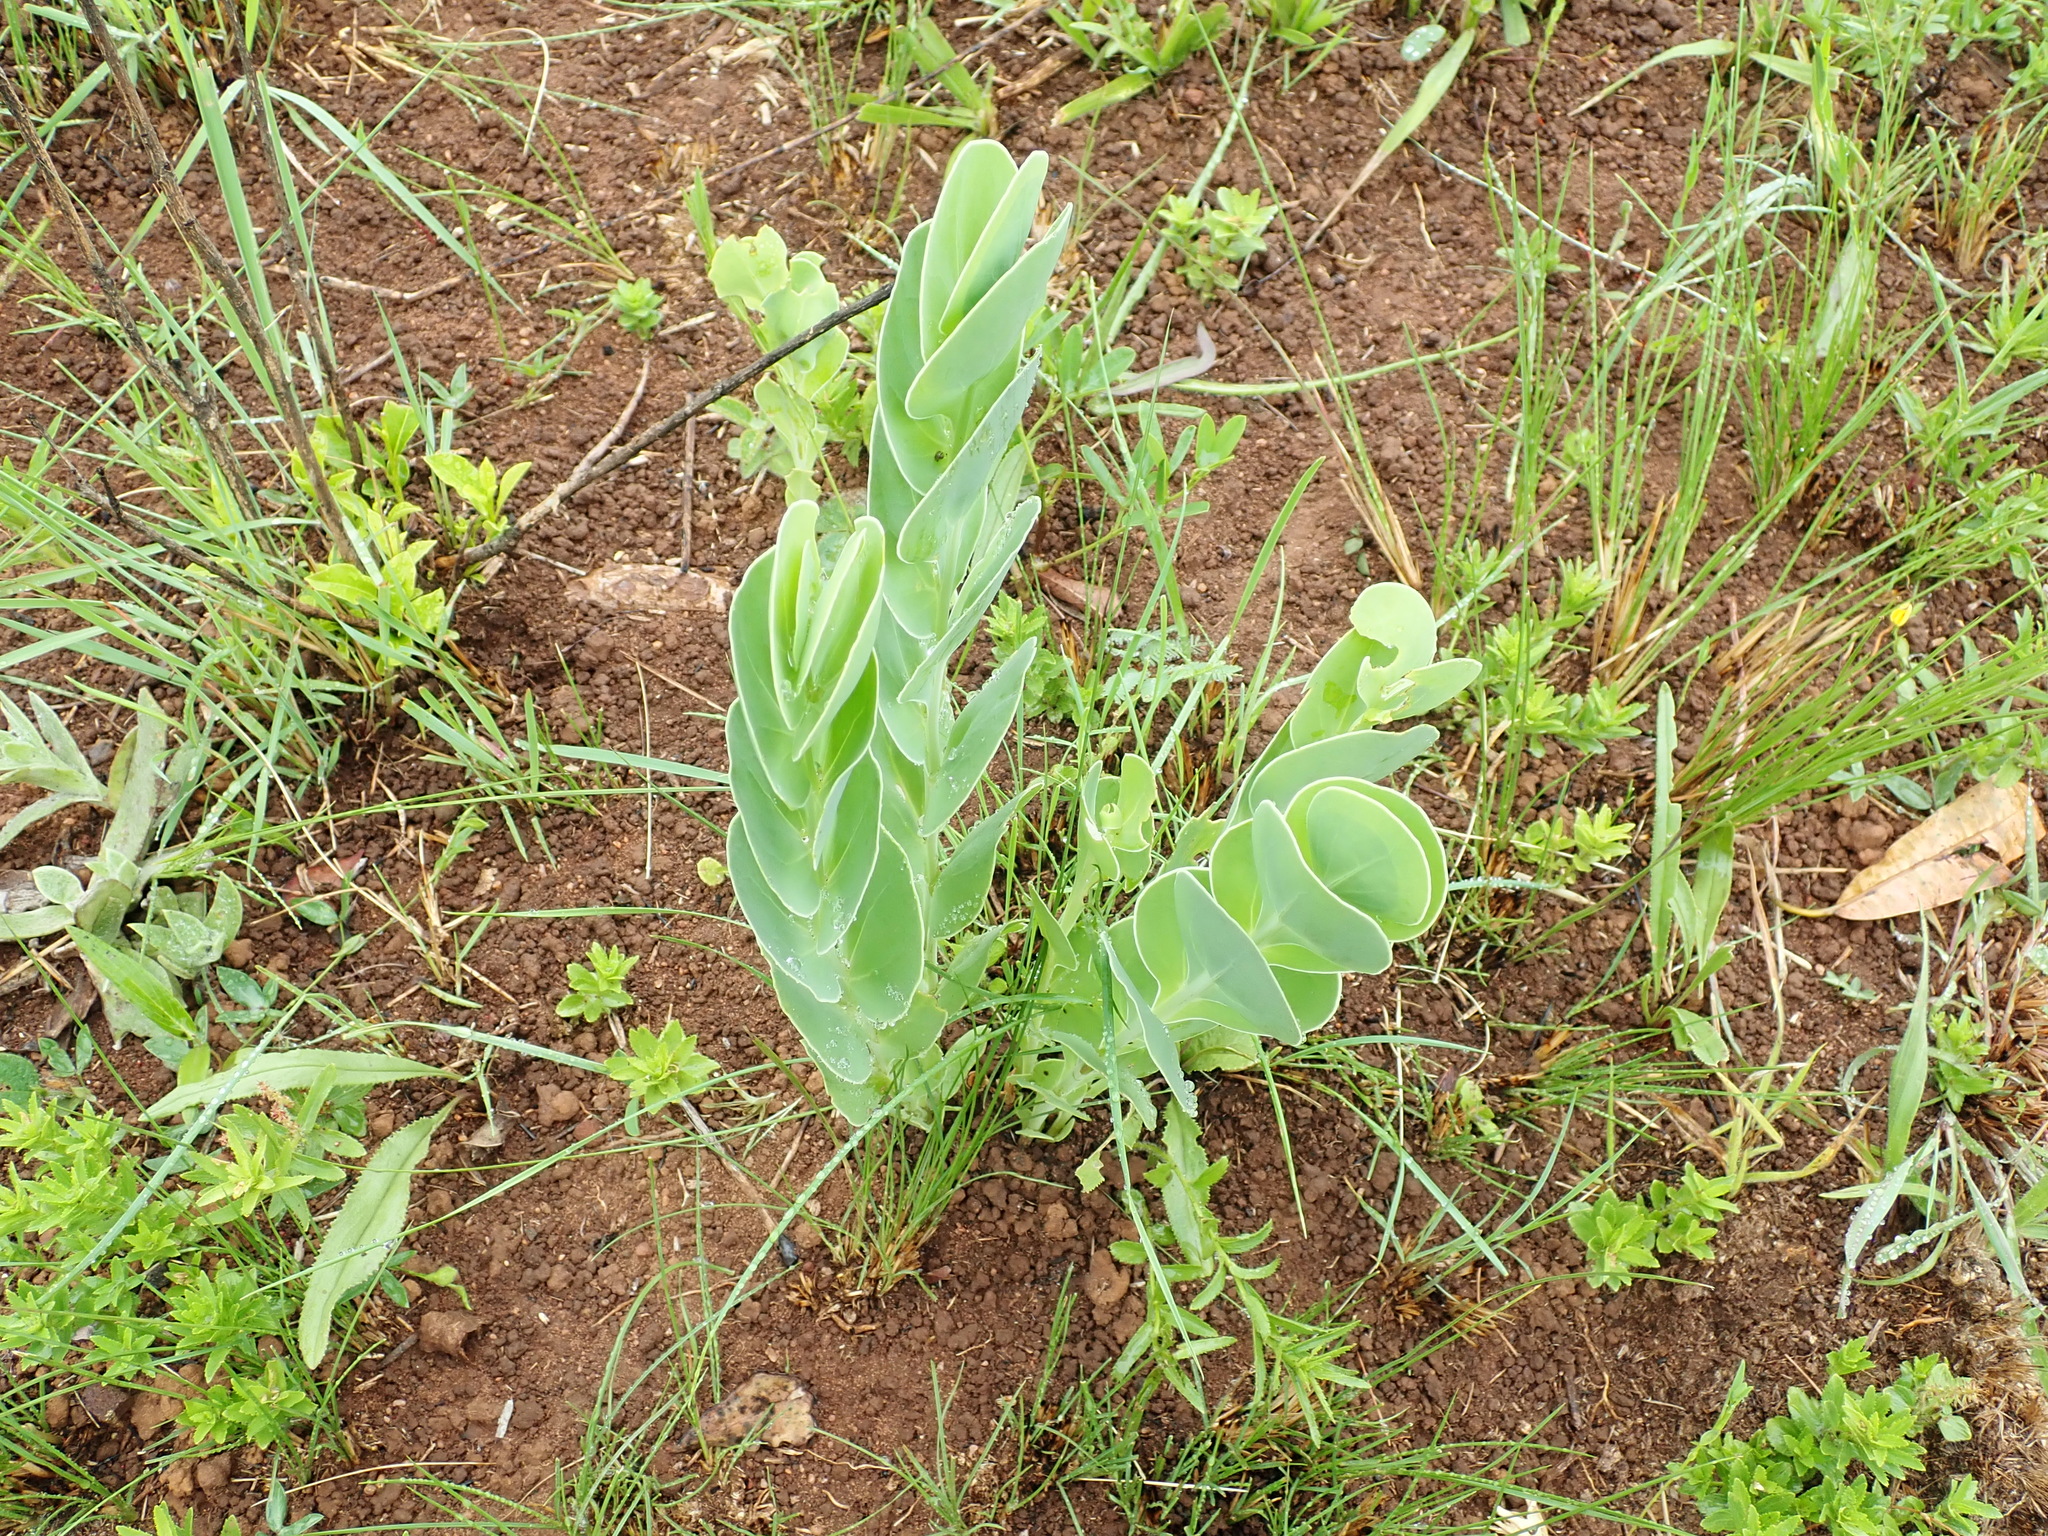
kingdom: Plantae
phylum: Tracheophyta
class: Magnoliopsida
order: Asterales
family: Asteraceae
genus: Lopholaena
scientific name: Lopholaena disticha
